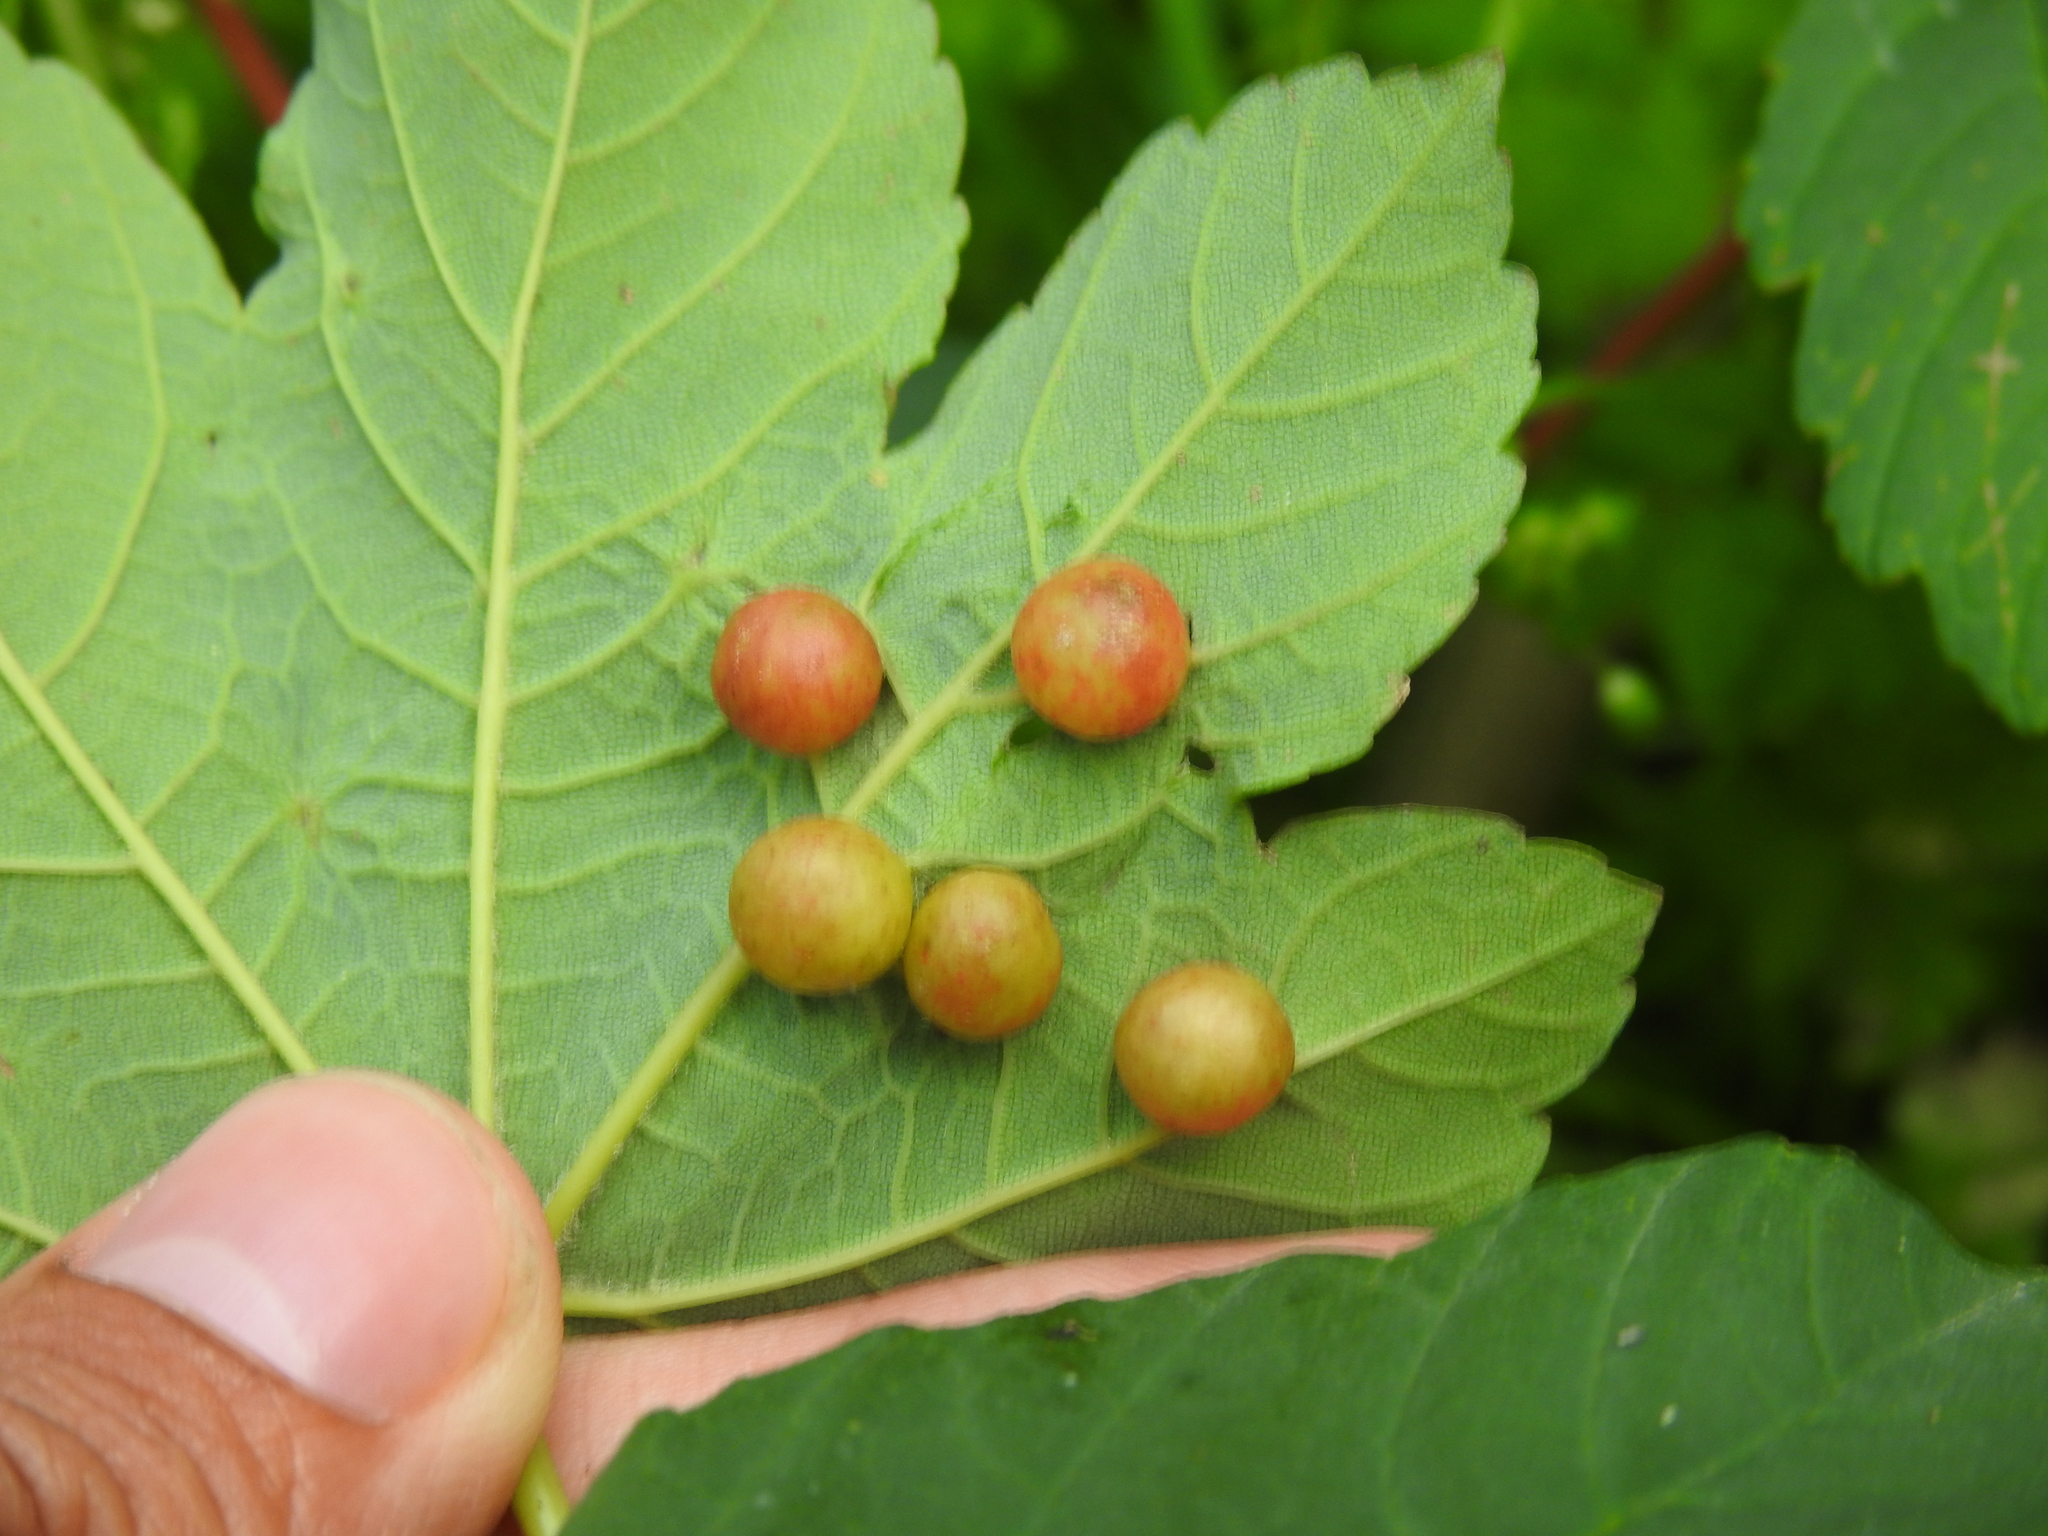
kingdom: Animalia
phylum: Arthropoda
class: Insecta
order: Hymenoptera
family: Cynipidae
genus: Pediaspis
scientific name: Pediaspis aceris
